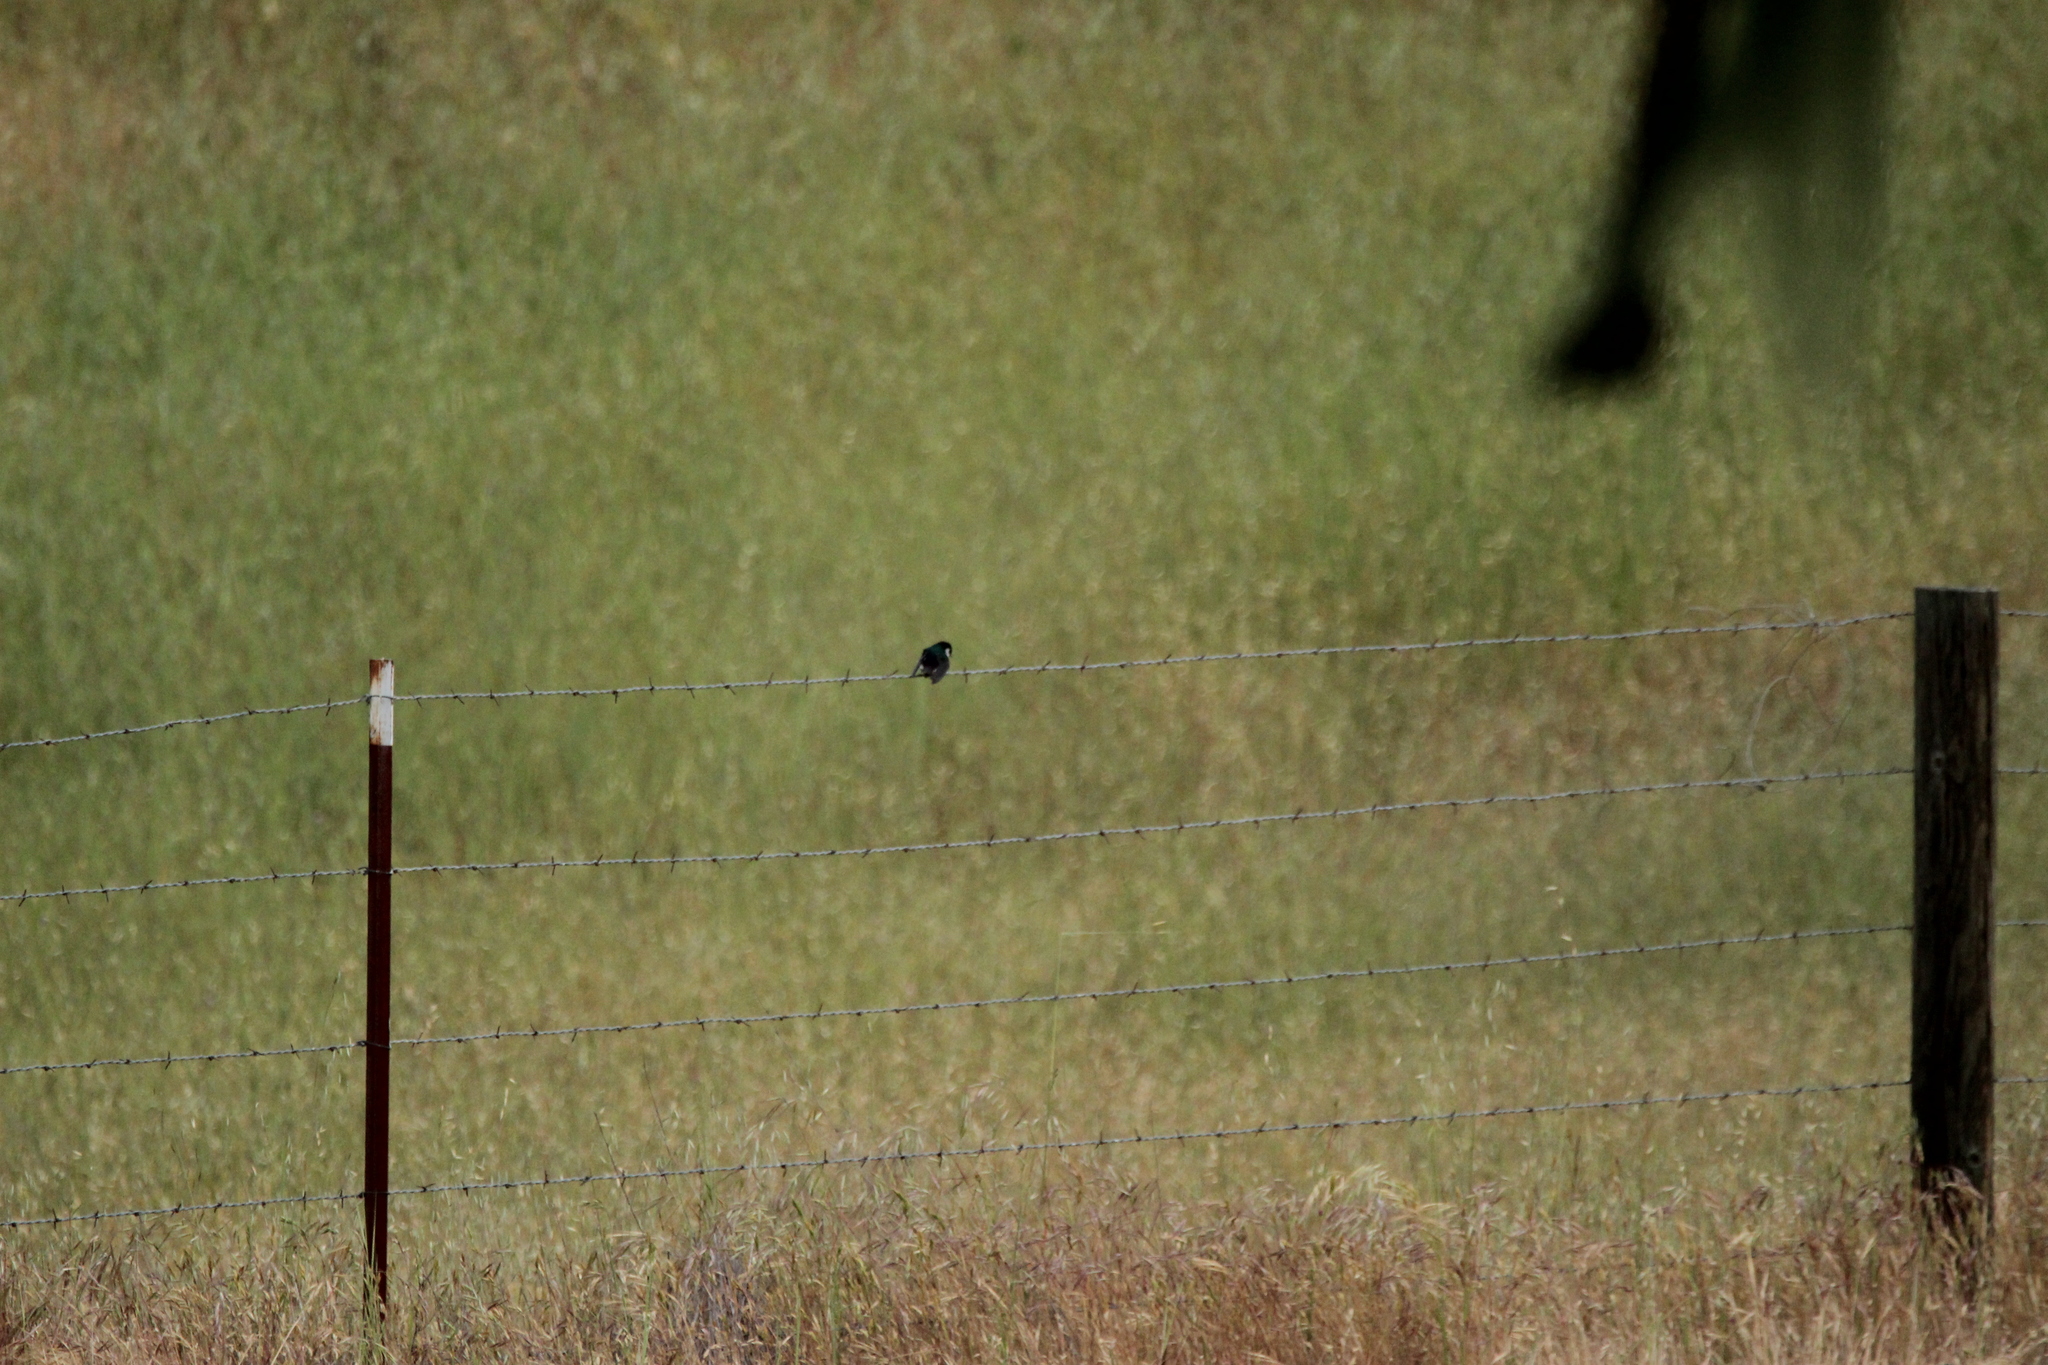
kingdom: Animalia
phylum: Chordata
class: Aves
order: Passeriformes
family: Hirundinidae
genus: Tachycineta
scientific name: Tachycineta thalassina
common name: Violet-green swallow
